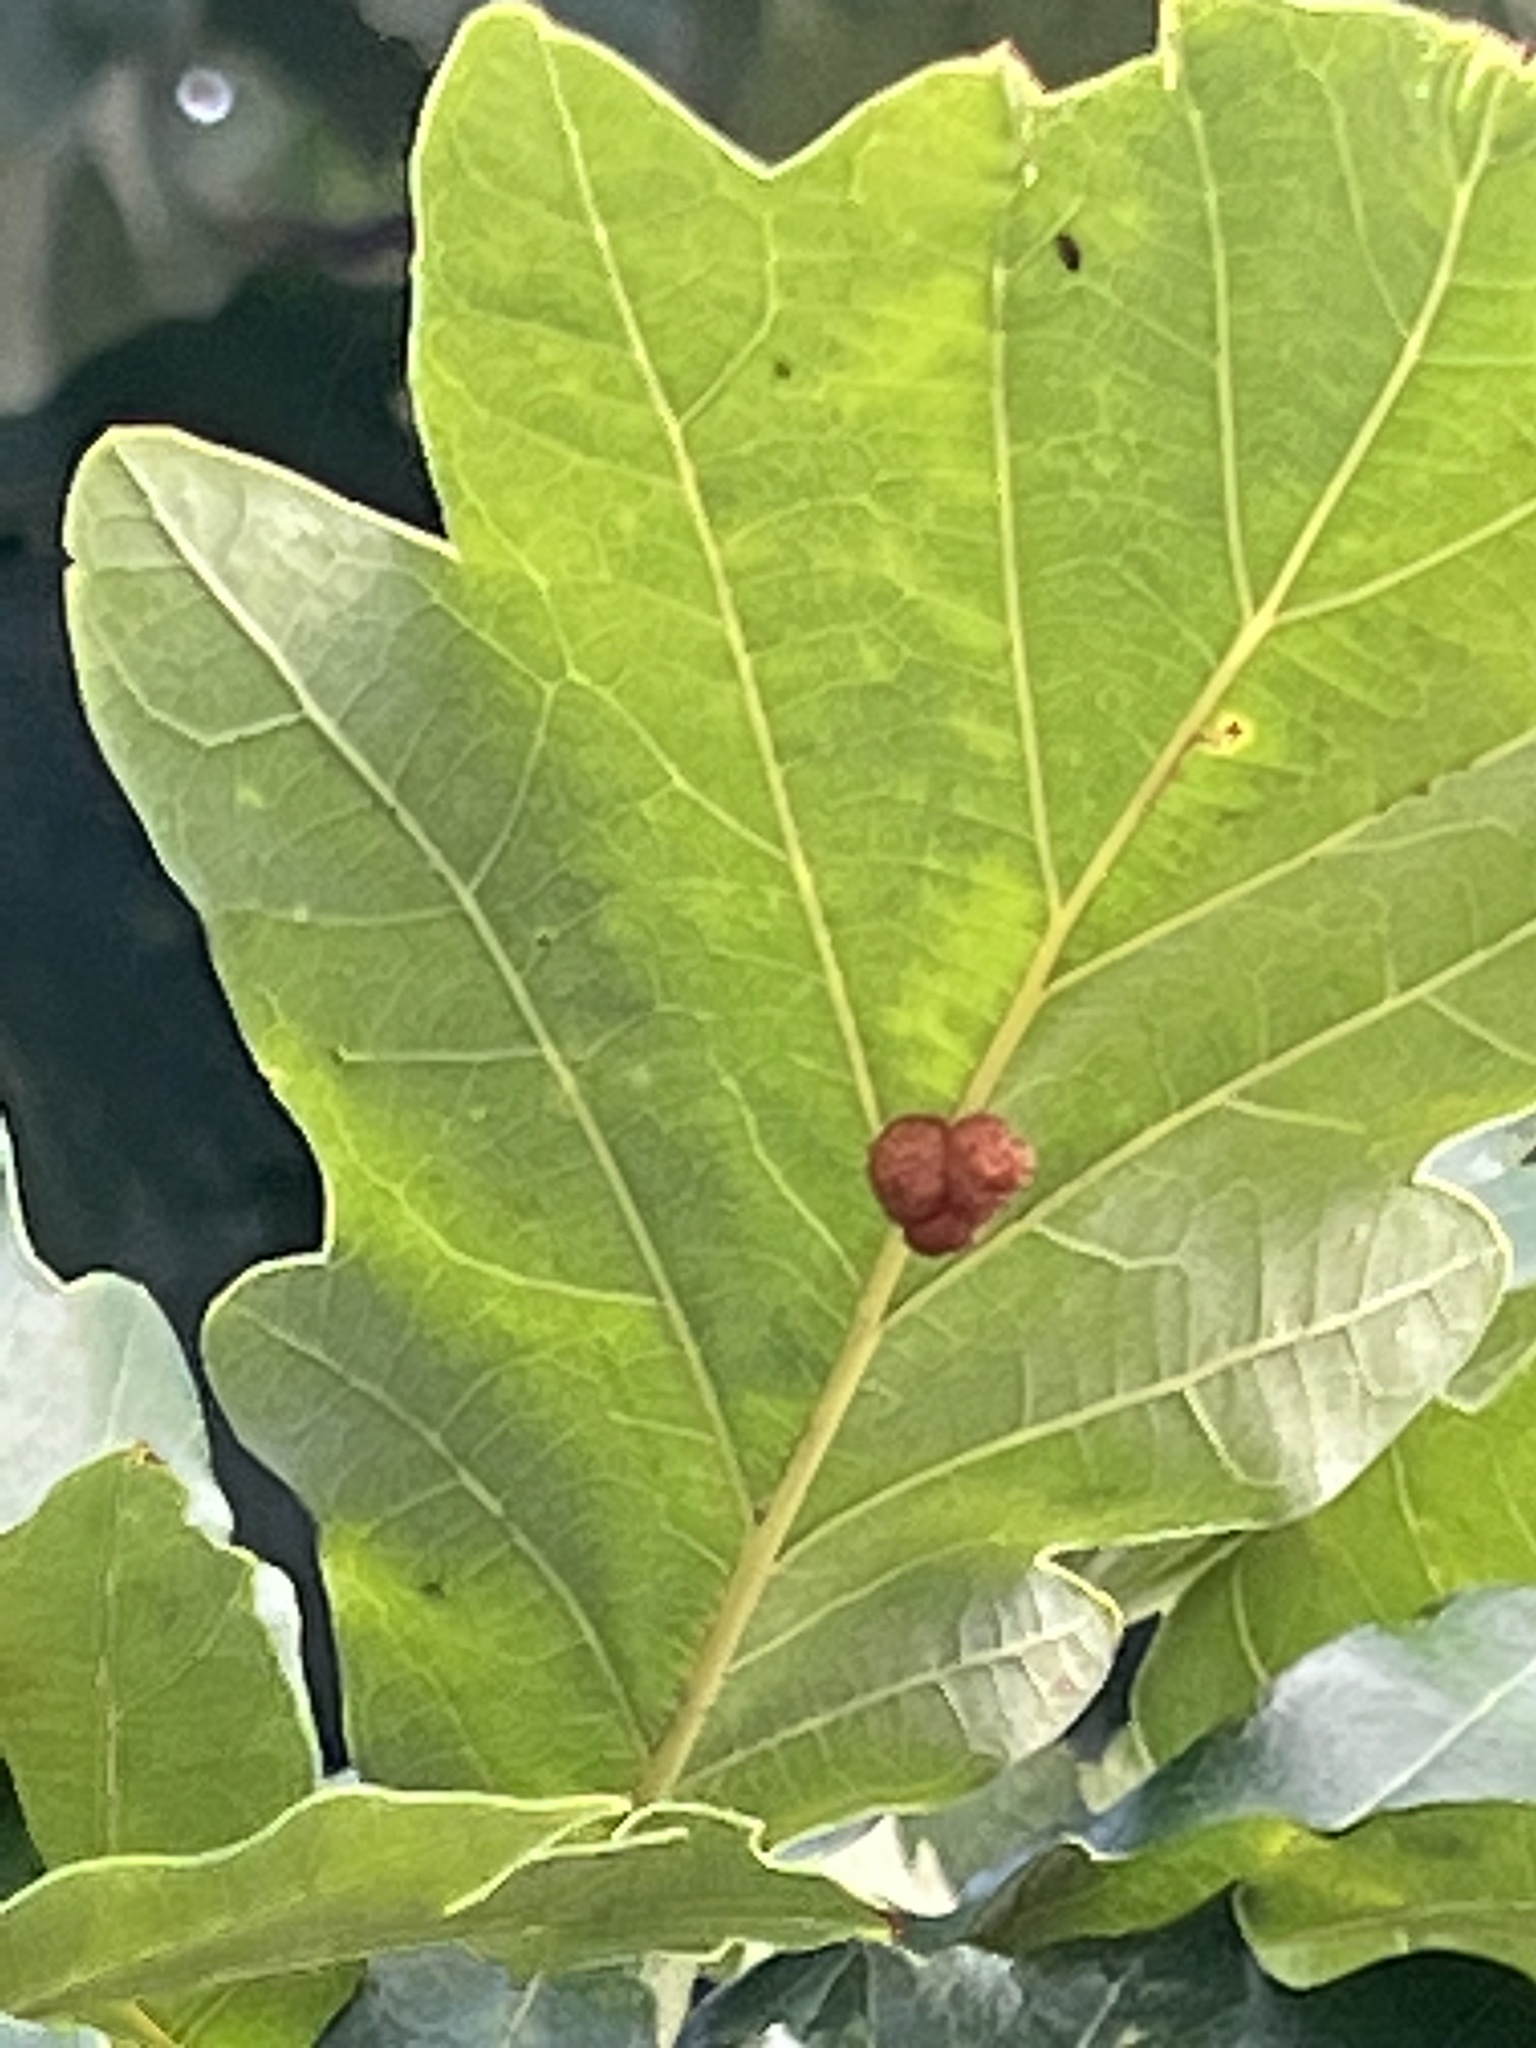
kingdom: Animalia
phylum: Arthropoda
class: Insecta
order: Hymenoptera
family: Cynipidae
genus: Andricus
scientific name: Andricus
